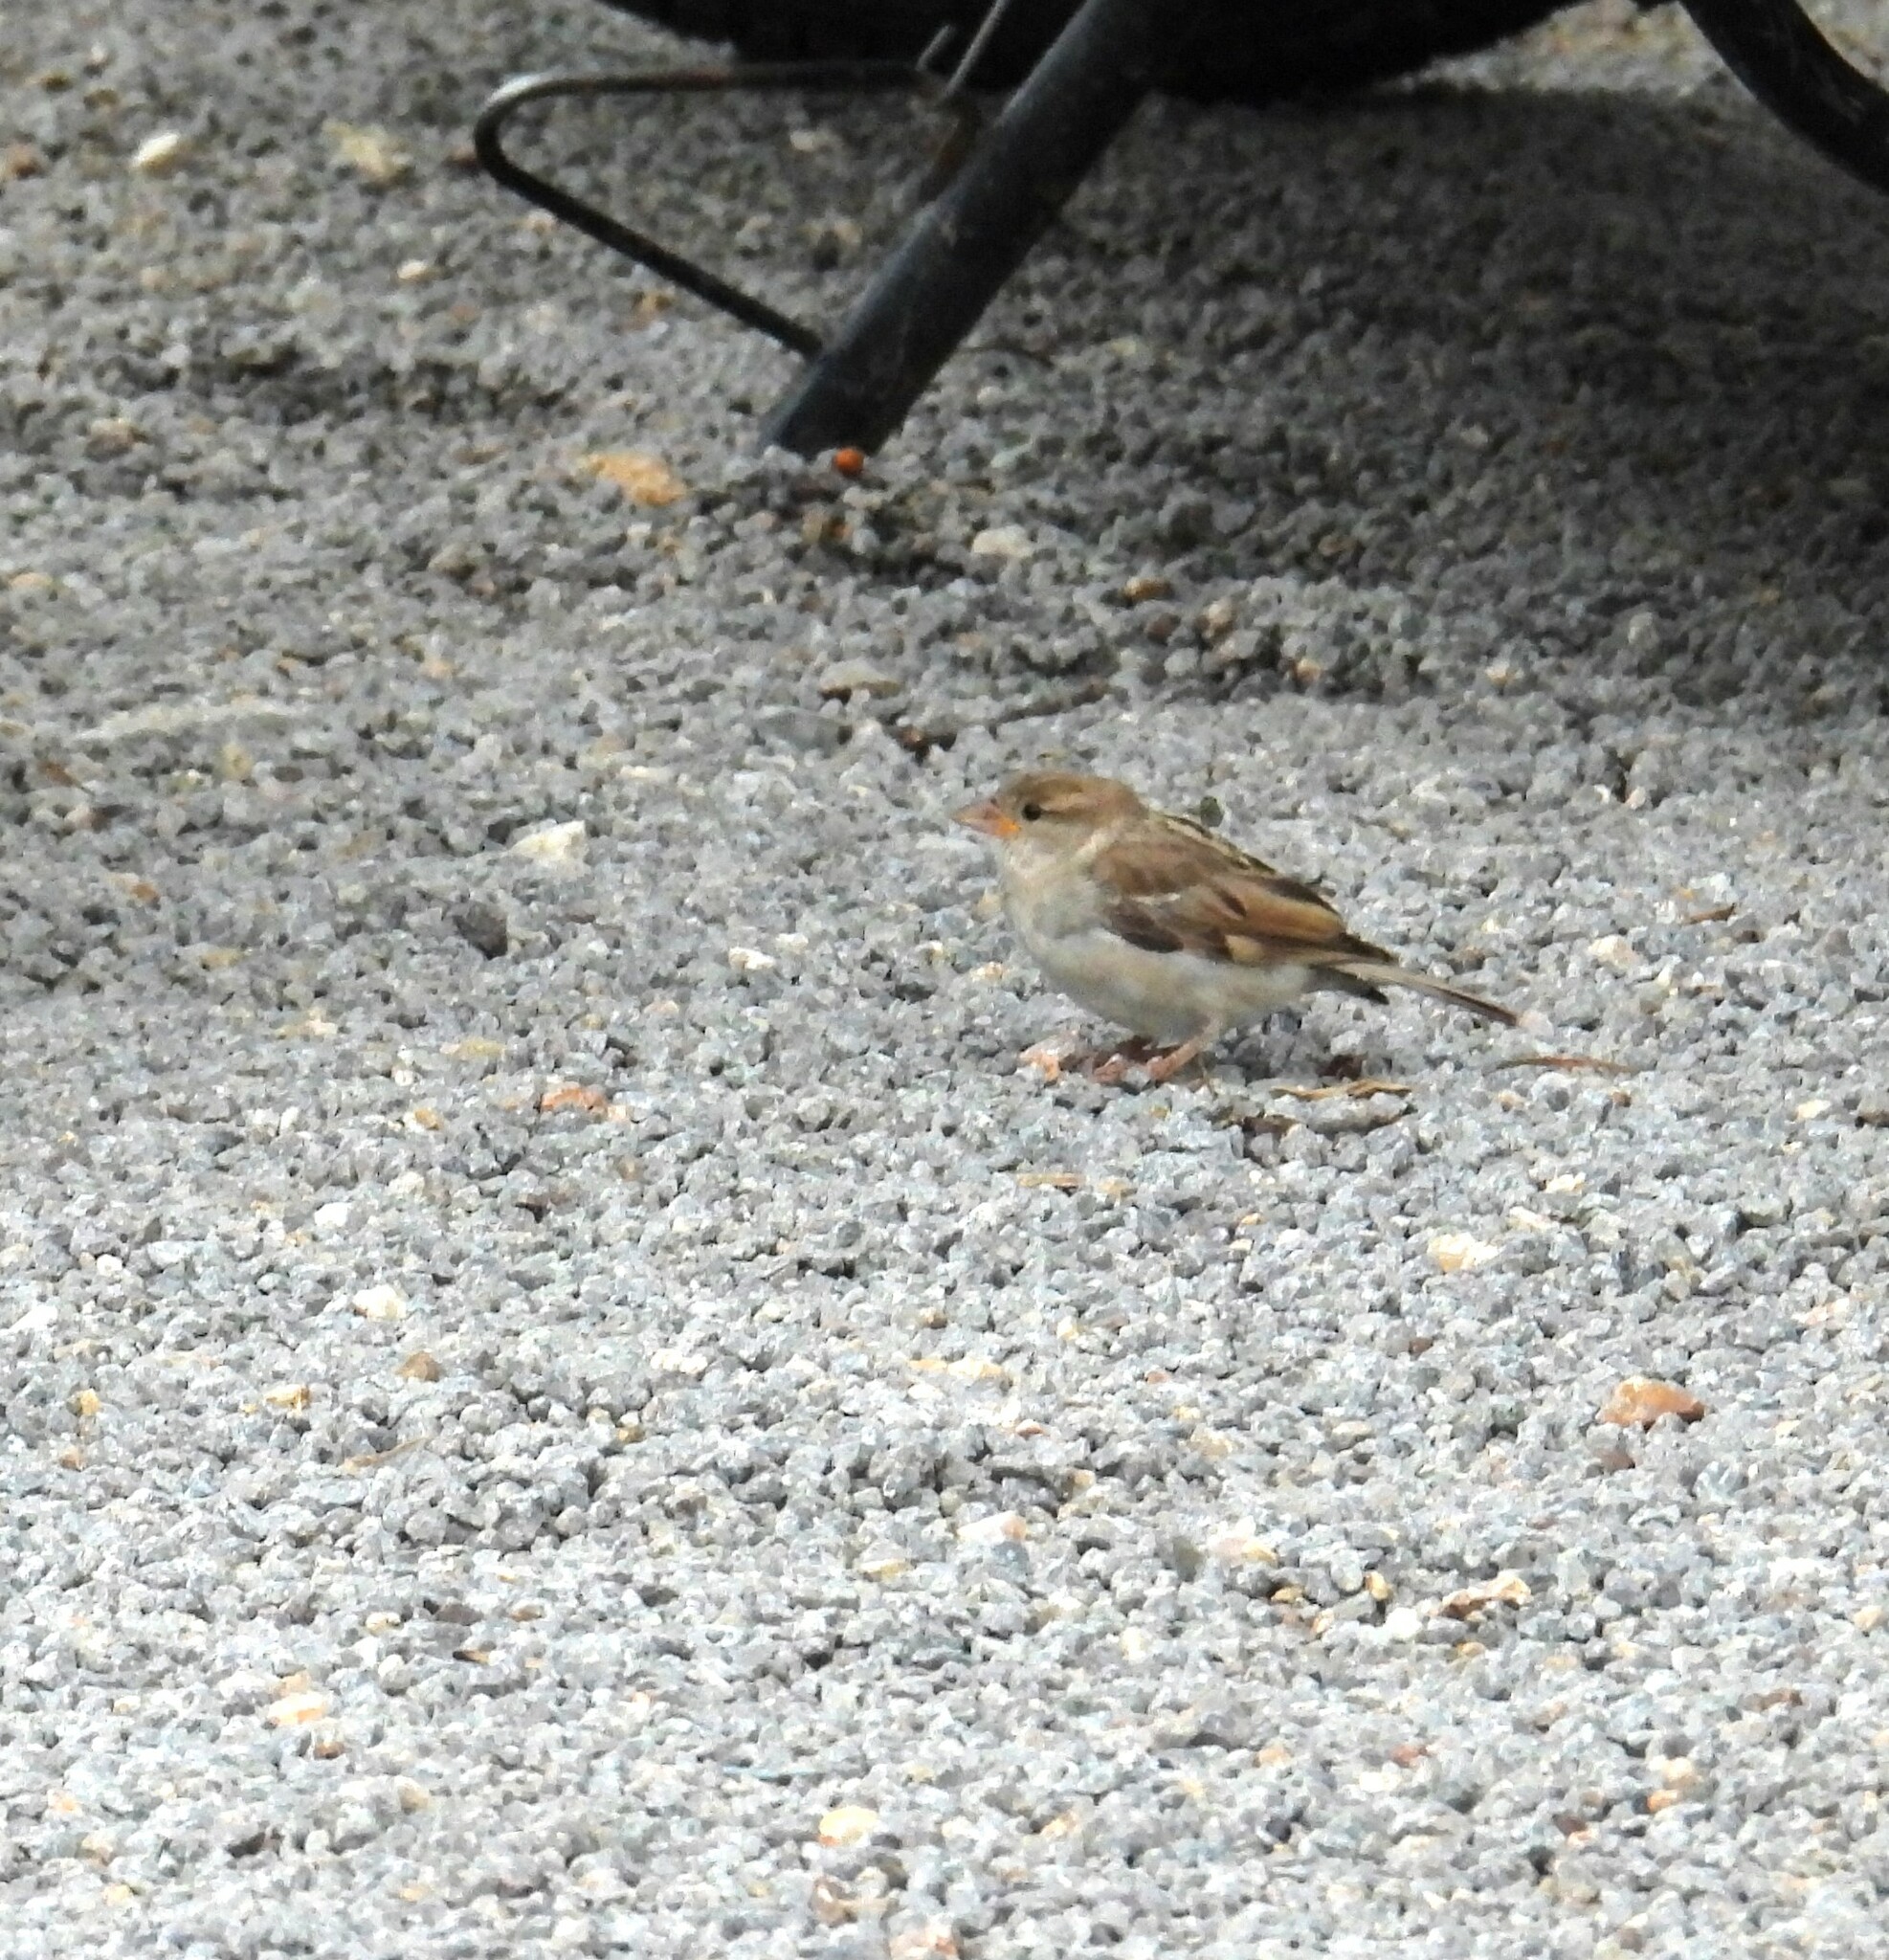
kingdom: Animalia
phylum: Chordata
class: Aves
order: Passeriformes
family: Passeridae
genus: Passer
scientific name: Passer domesticus
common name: House sparrow
